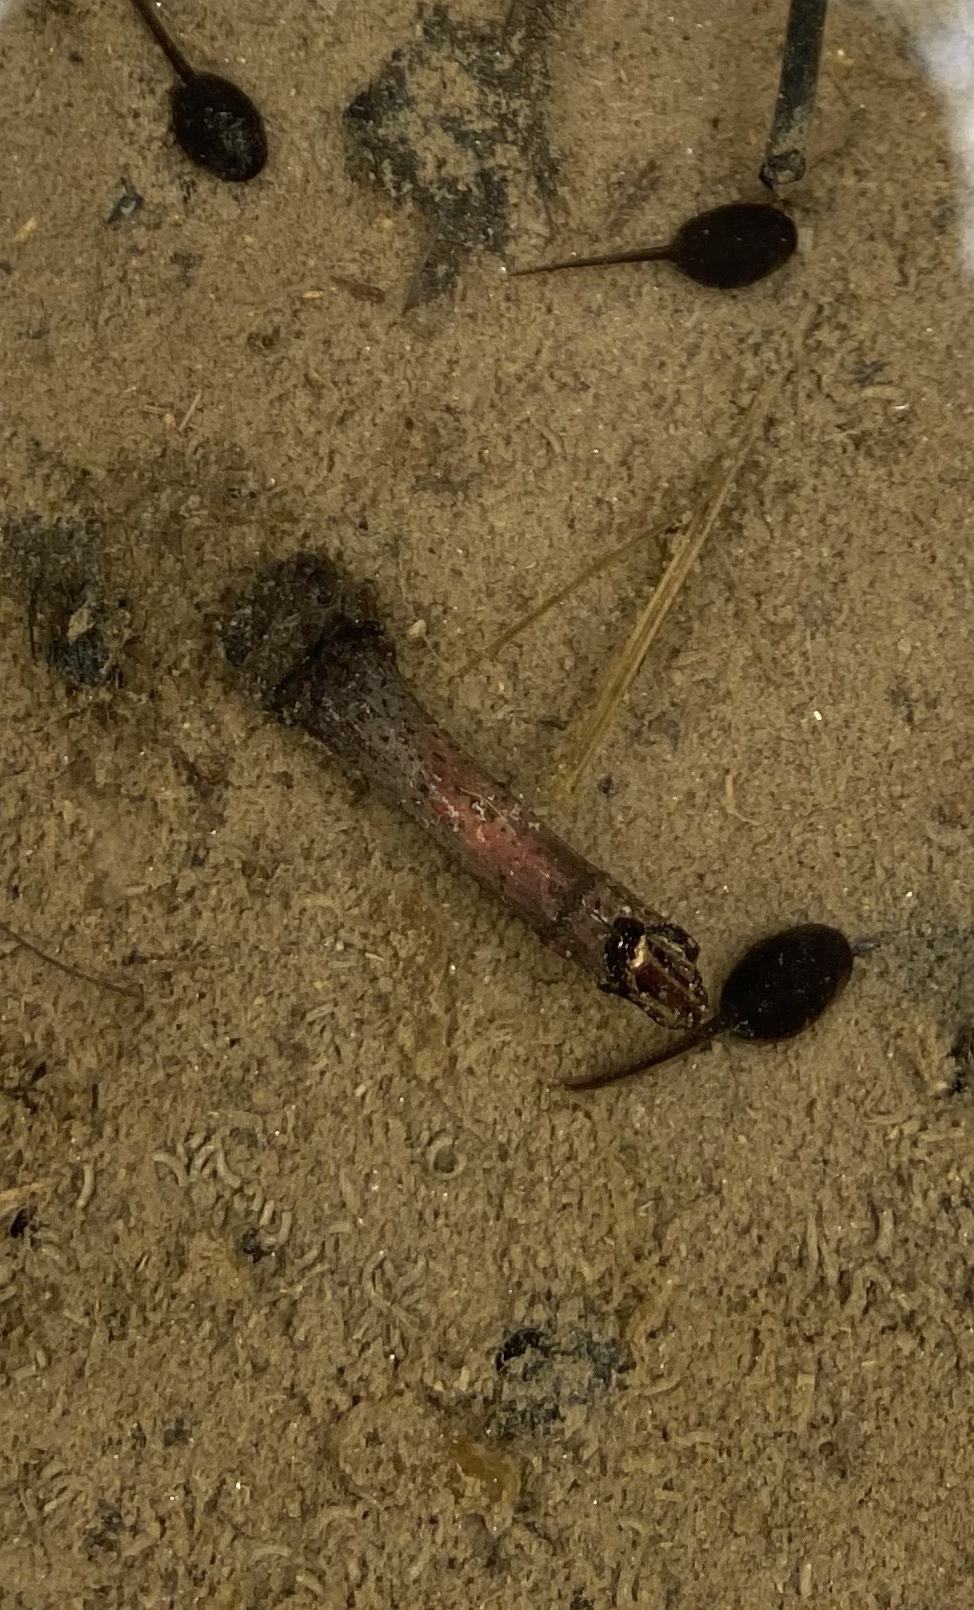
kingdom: Animalia
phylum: Chordata
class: Amphibia
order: Anura
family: Bufonidae
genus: Anaxyrus
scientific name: Anaxyrus americanus
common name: American toad
